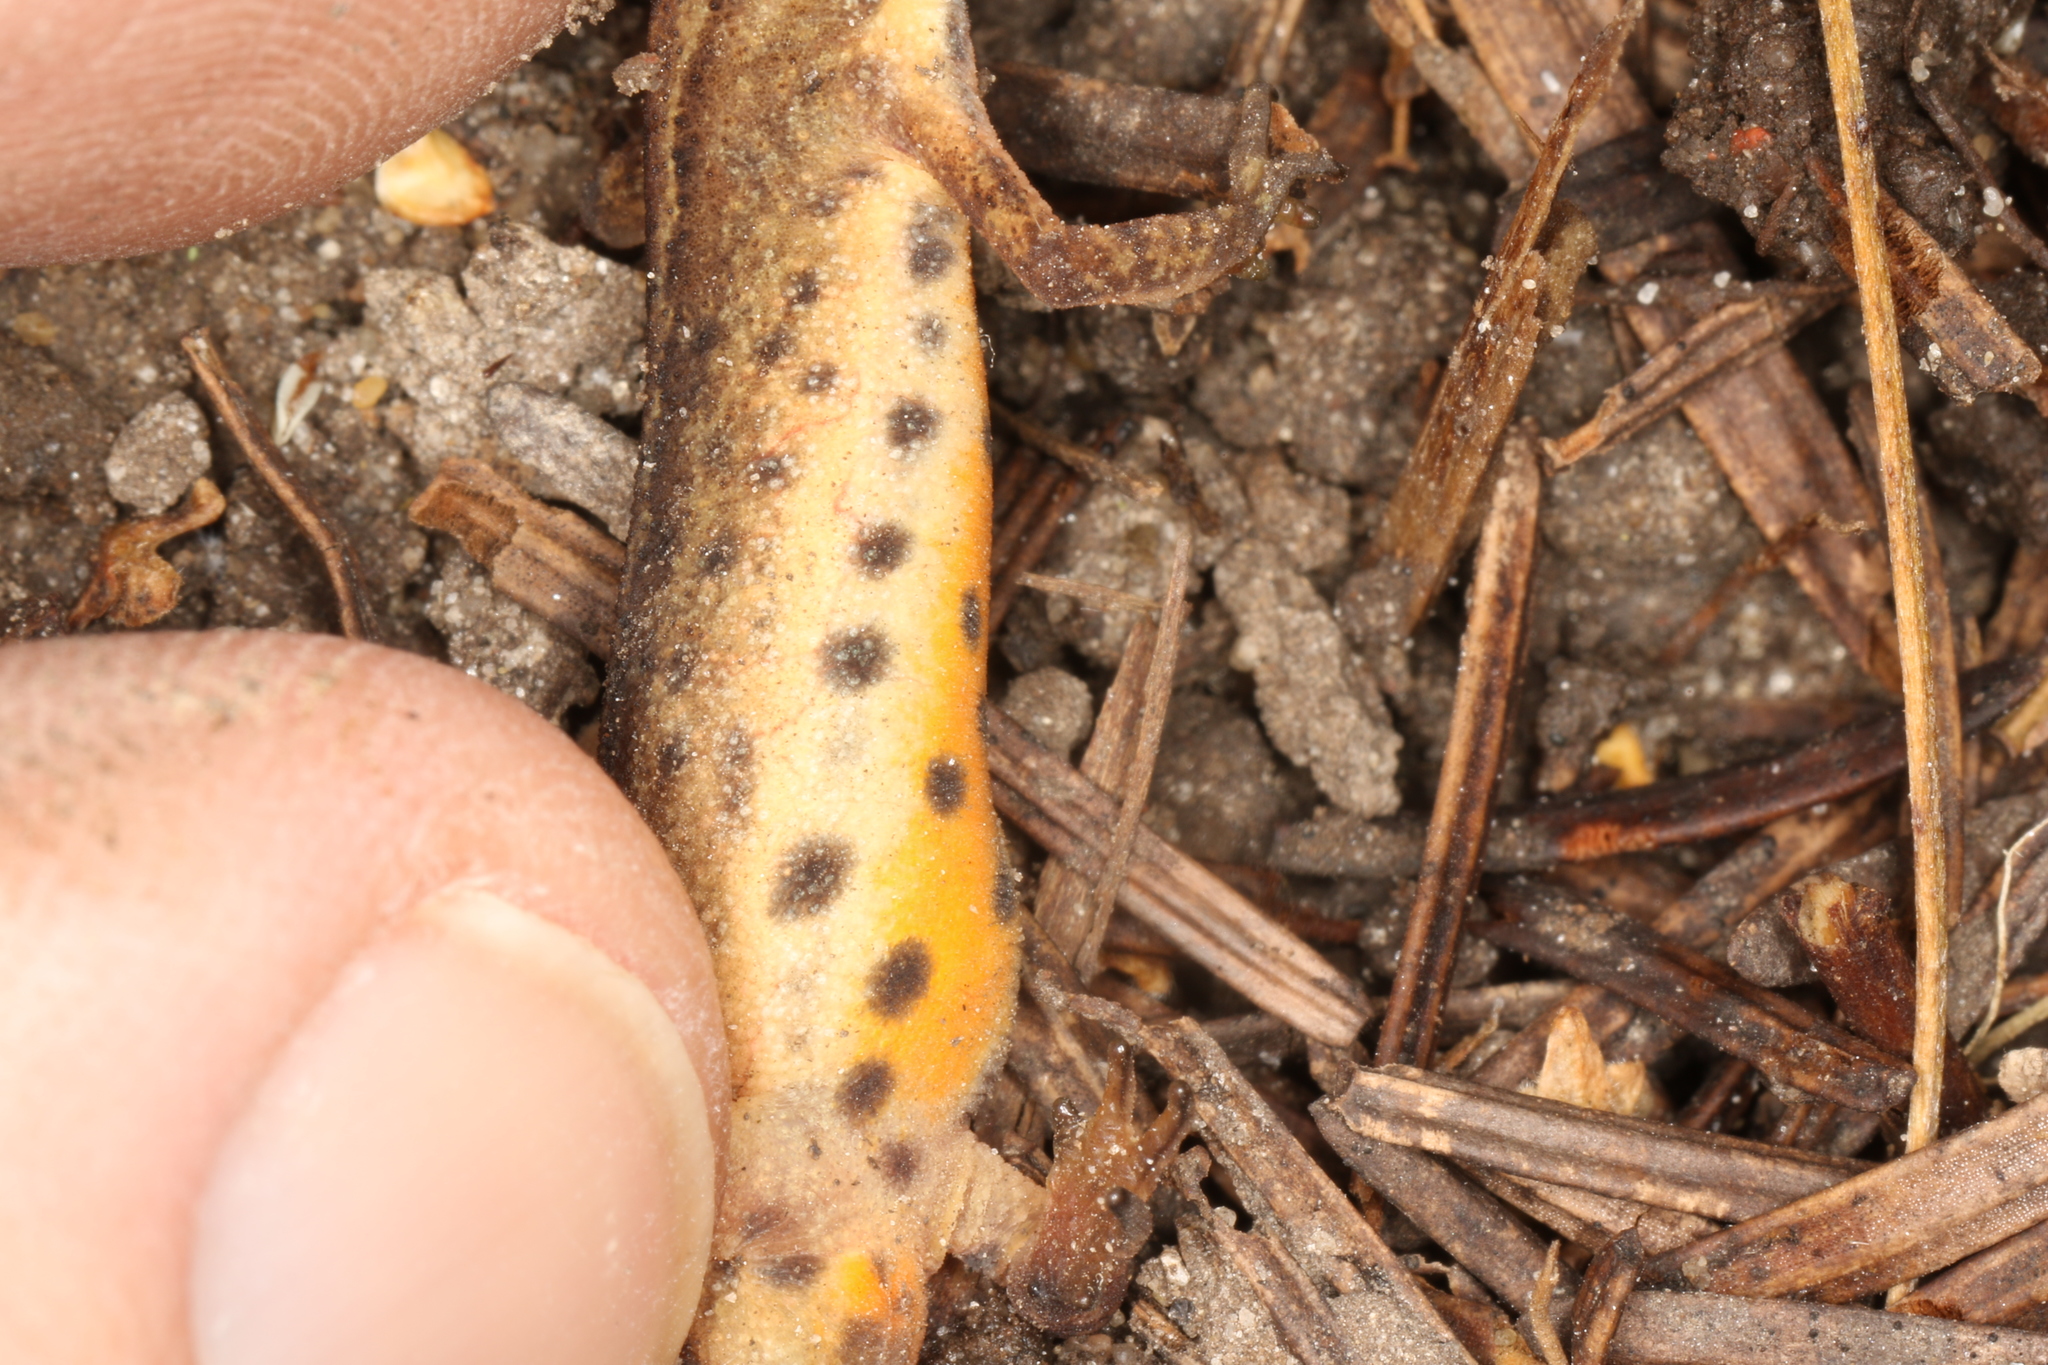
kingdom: Animalia
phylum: Chordata
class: Amphibia
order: Caudata
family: Salamandridae
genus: Lissotriton
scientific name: Lissotriton vulgaris
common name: Smooth newt
